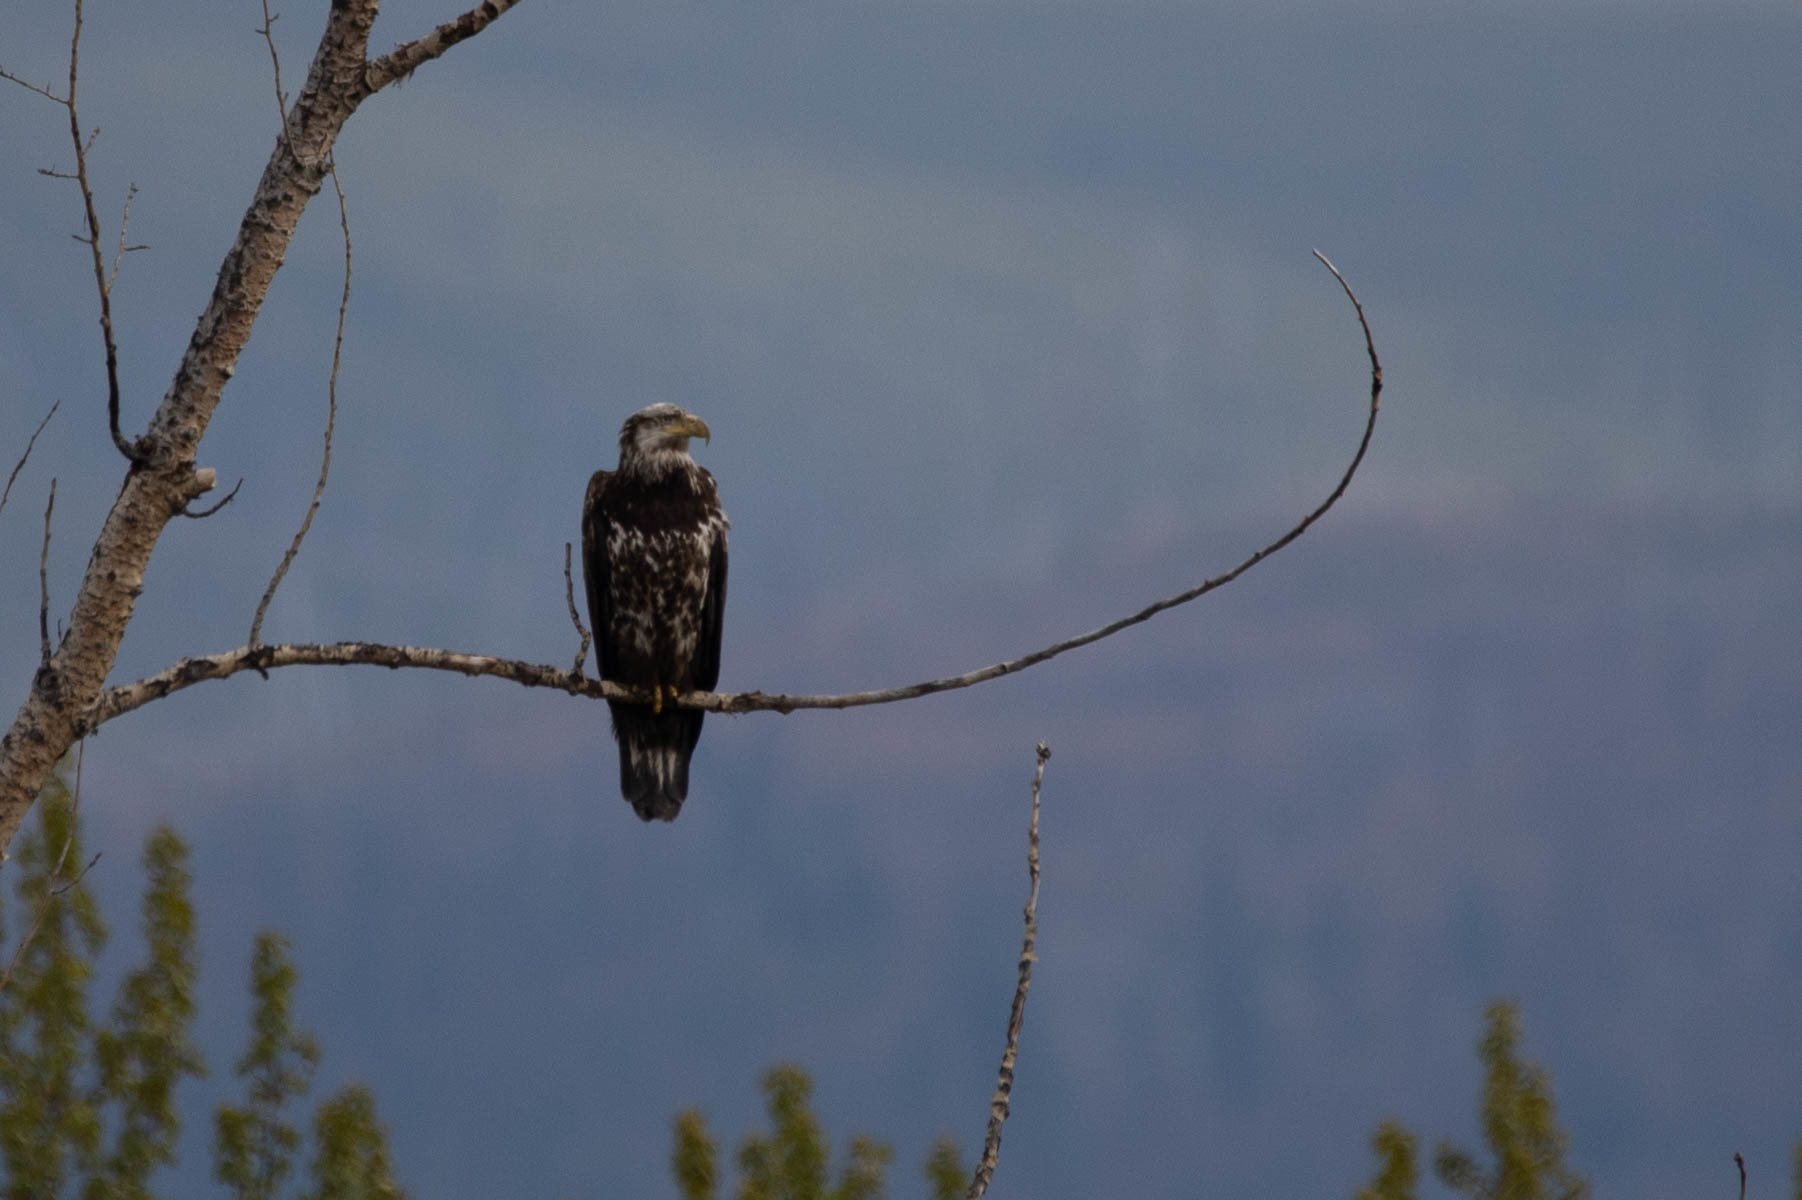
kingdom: Animalia
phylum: Chordata
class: Aves
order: Accipitriformes
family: Accipitridae
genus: Haliaeetus
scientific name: Haliaeetus leucocephalus
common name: Bald eagle
